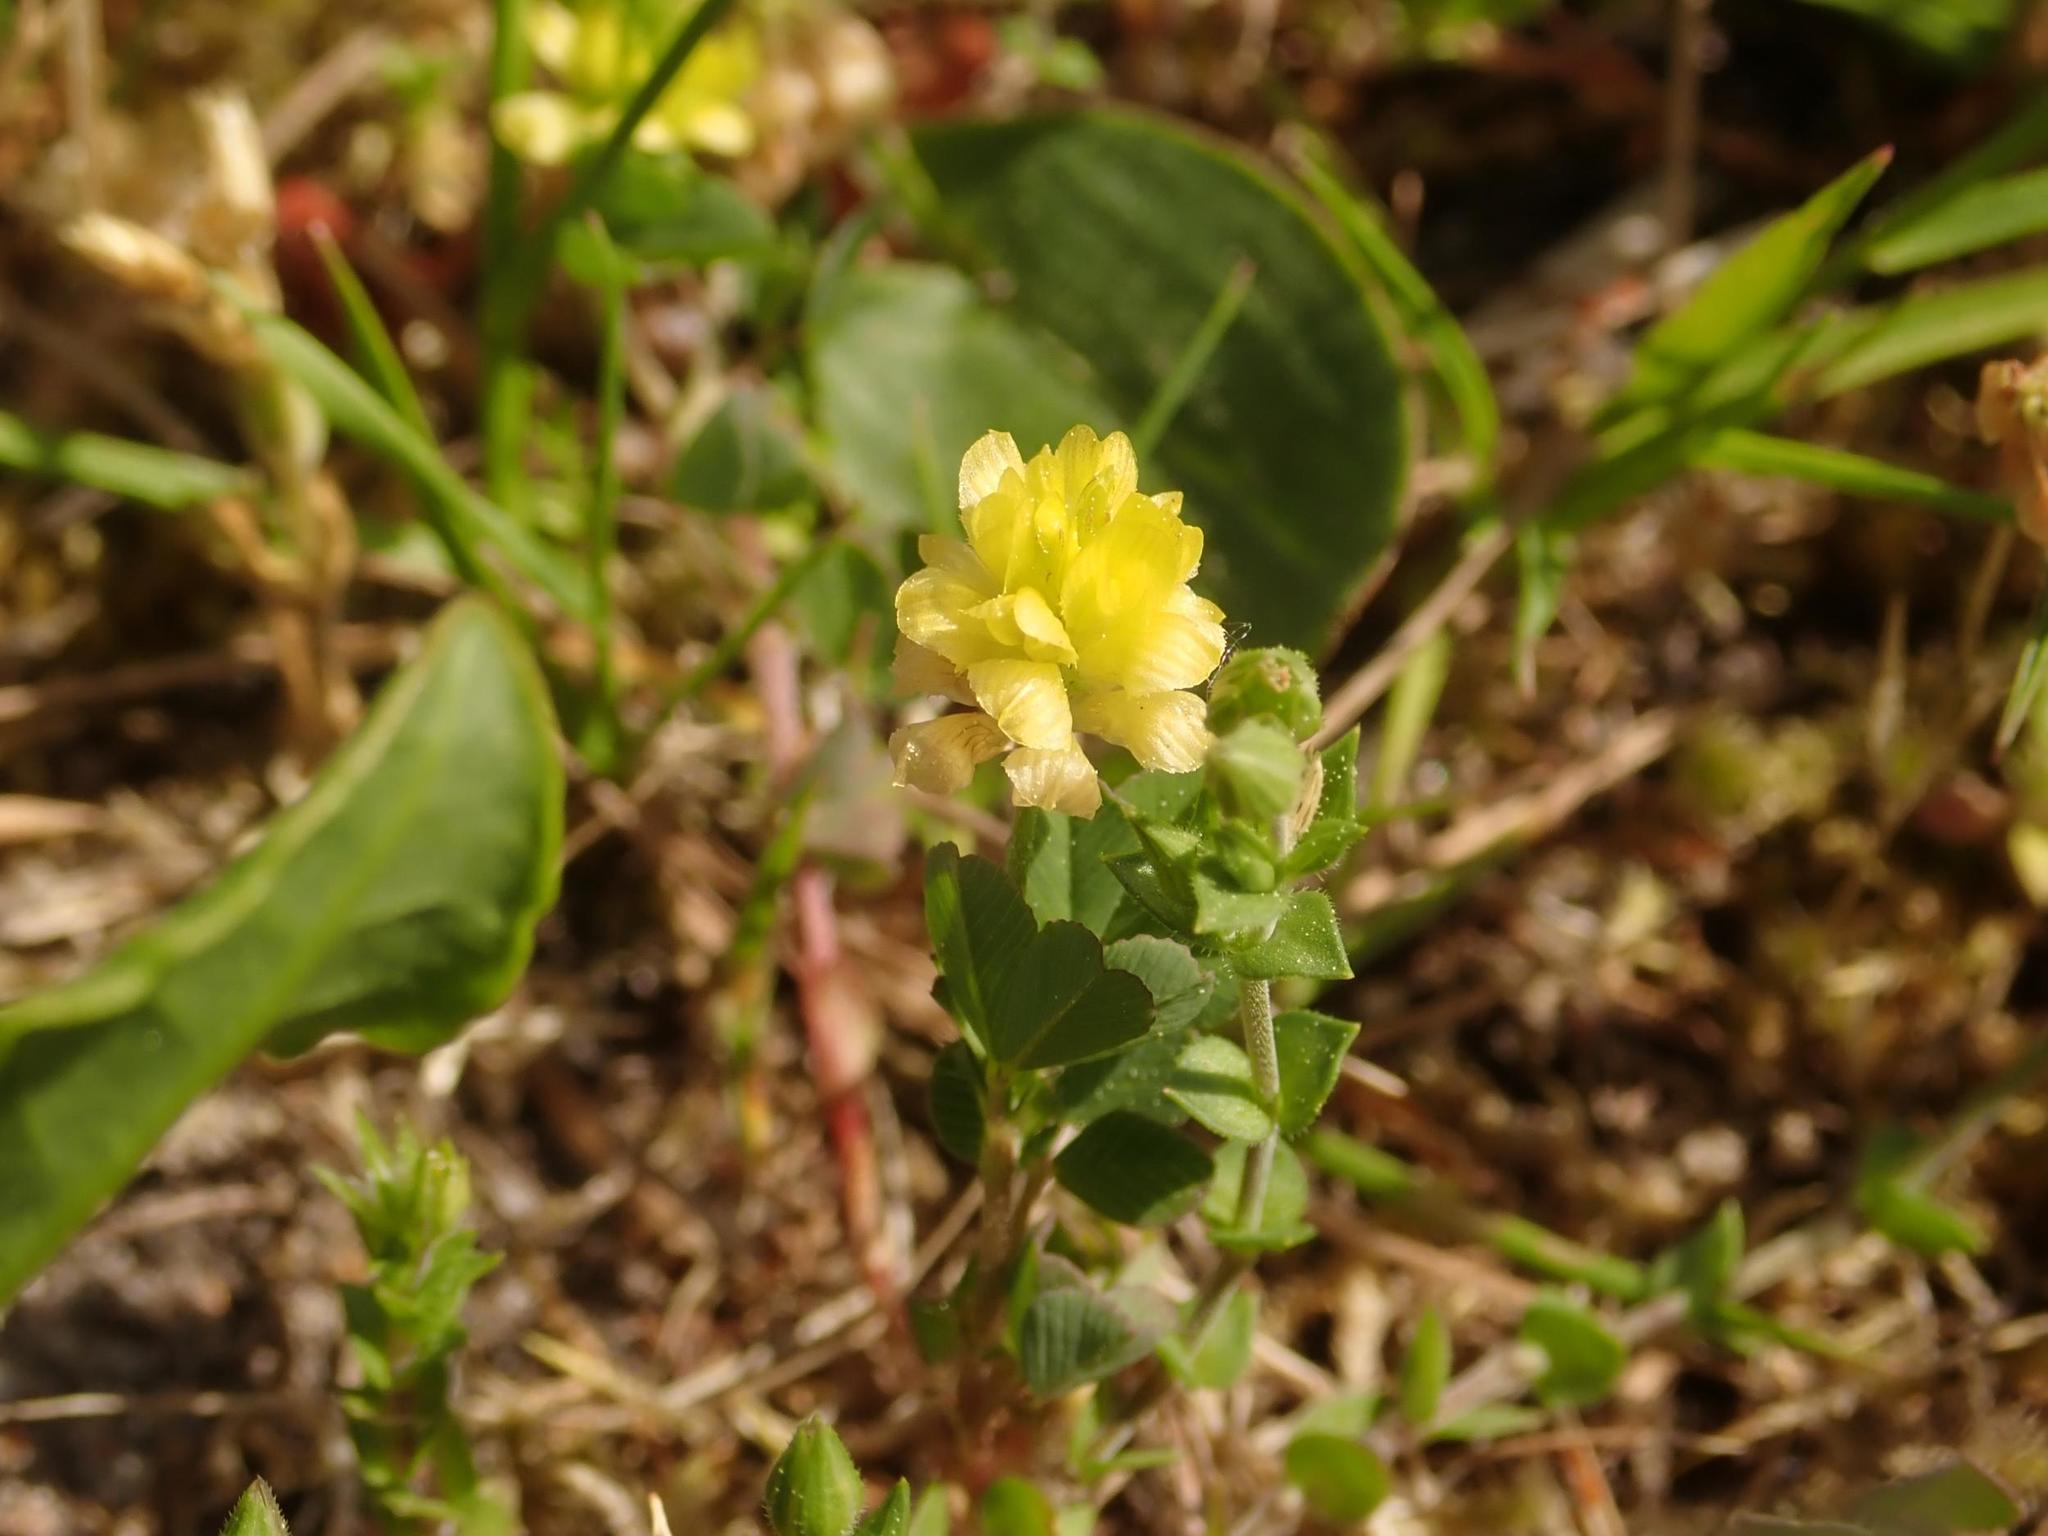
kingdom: Plantae
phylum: Tracheophyta
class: Magnoliopsida
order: Fabales
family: Fabaceae
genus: Trifolium
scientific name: Trifolium campestre
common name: Field clover
